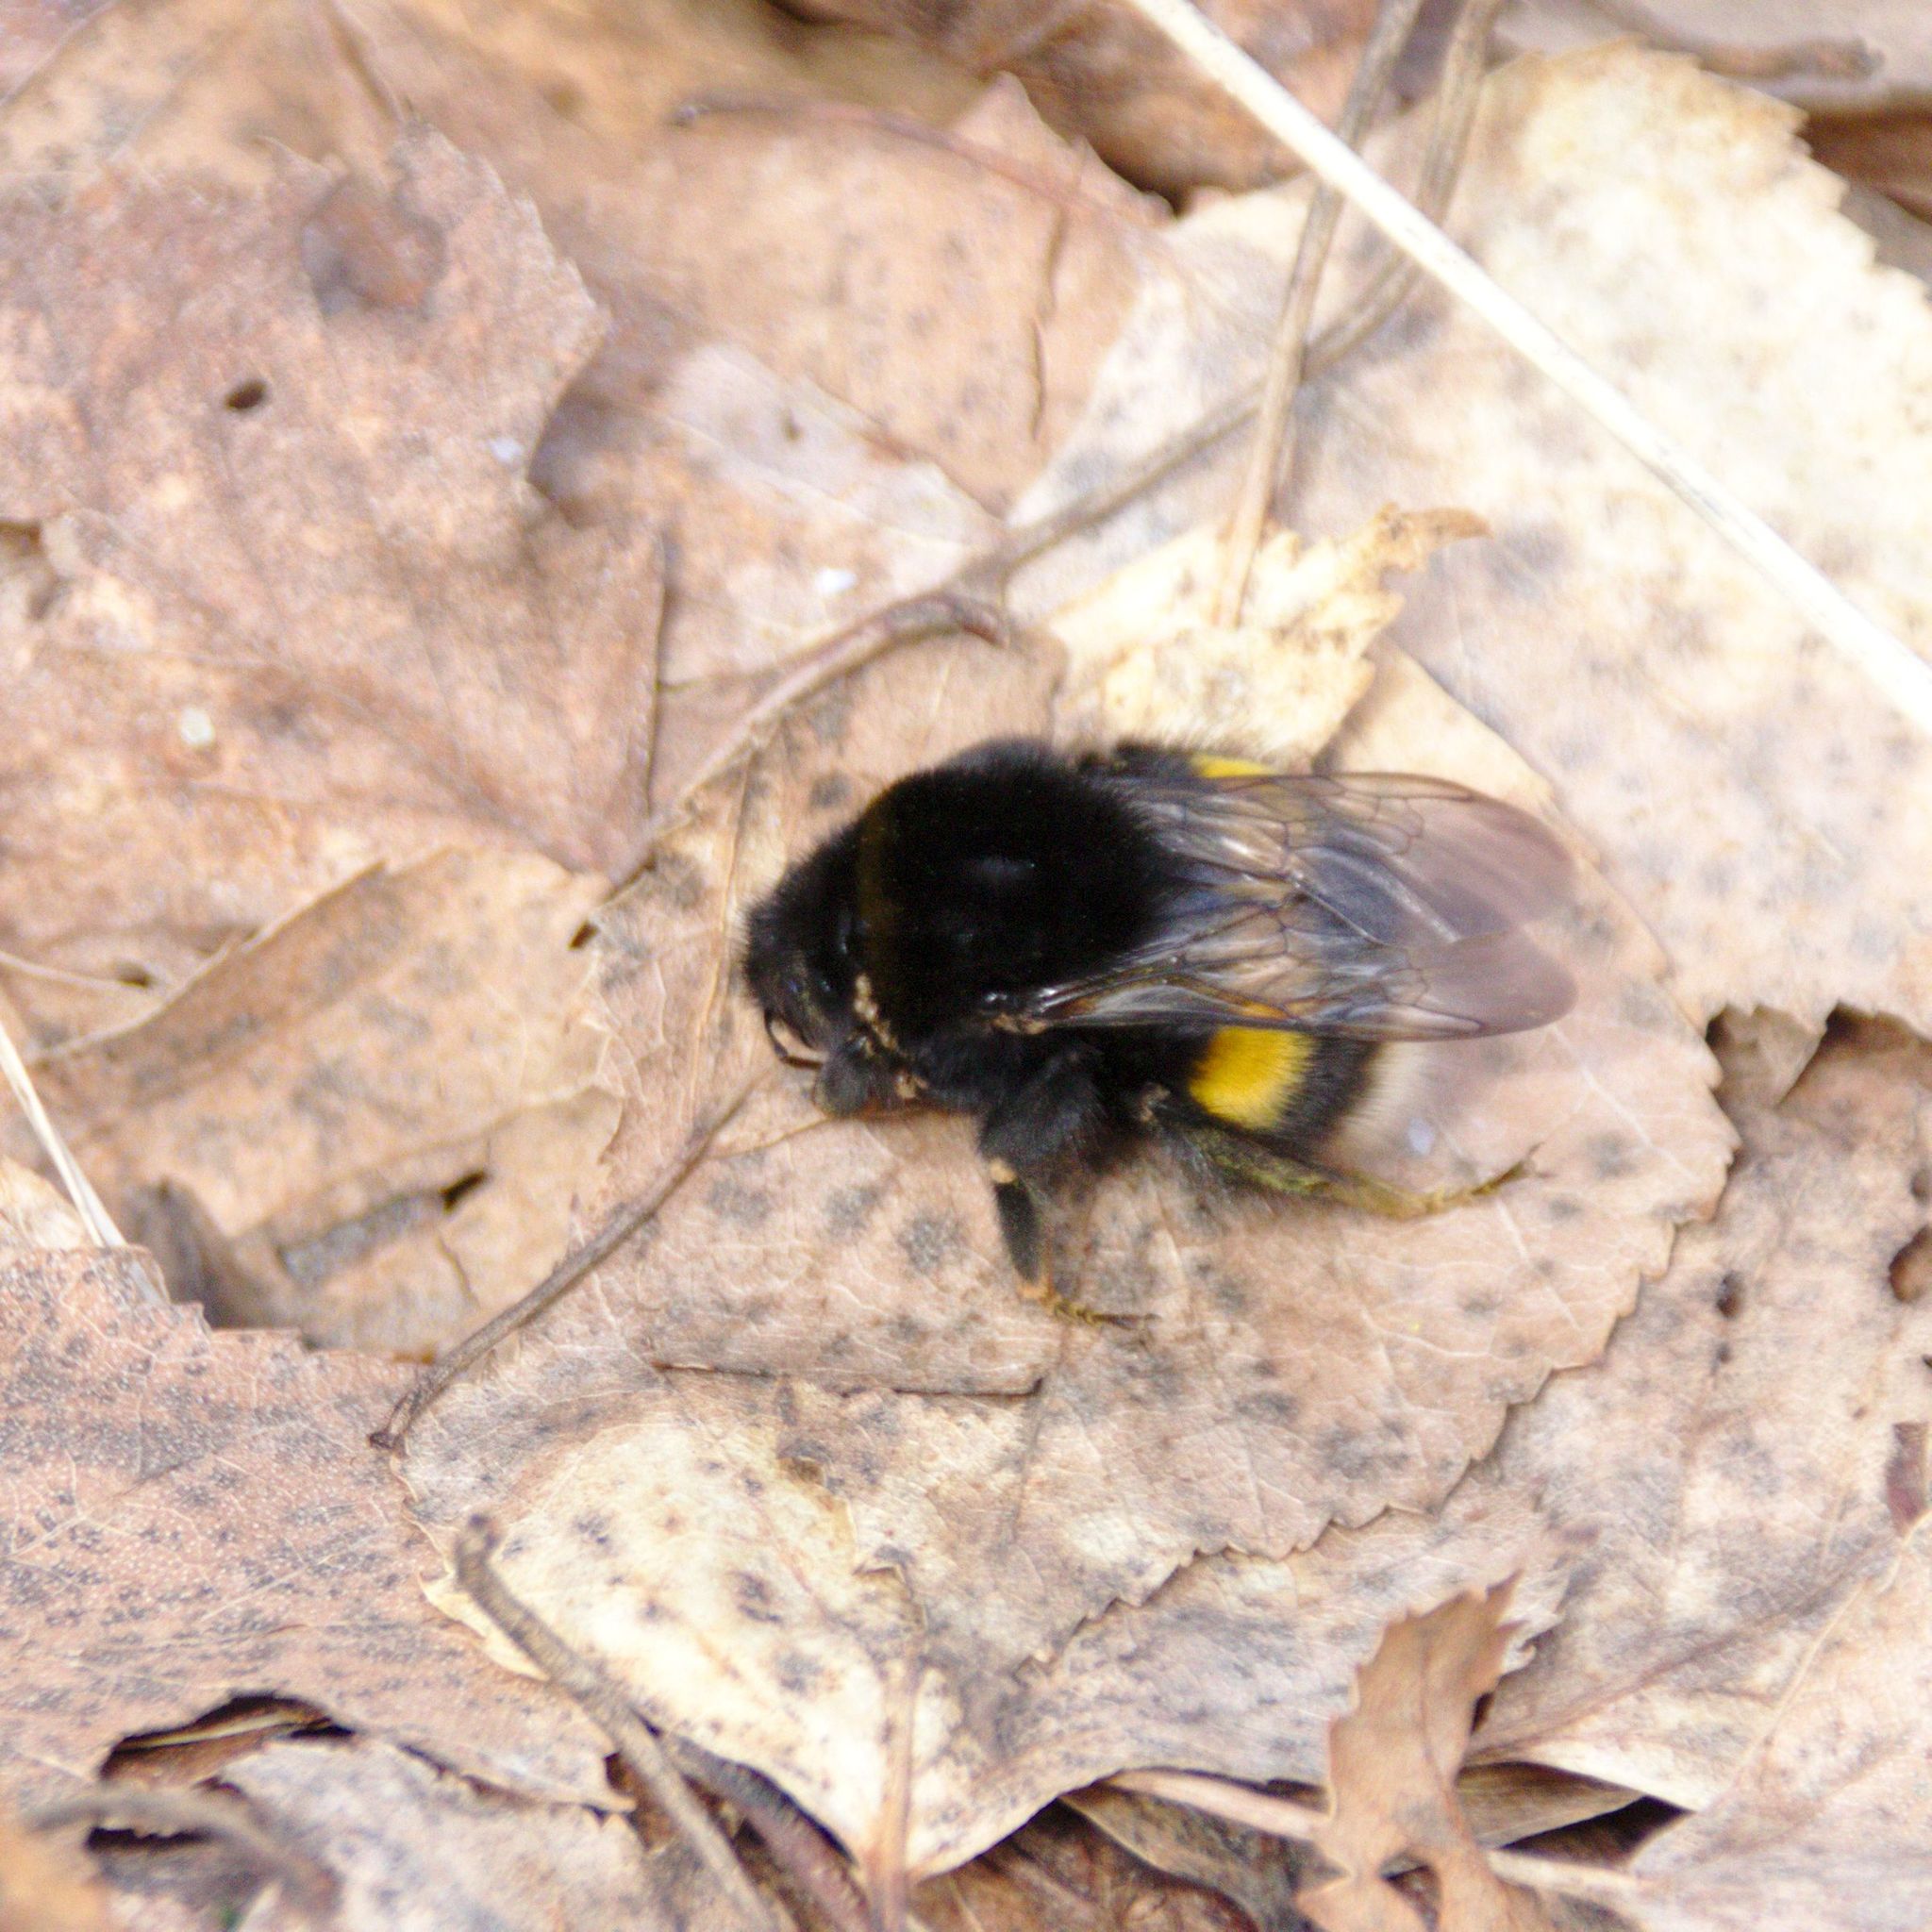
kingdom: Animalia
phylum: Arthropoda
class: Insecta
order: Hymenoptera
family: Apidae
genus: Bombus
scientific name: Bombus
